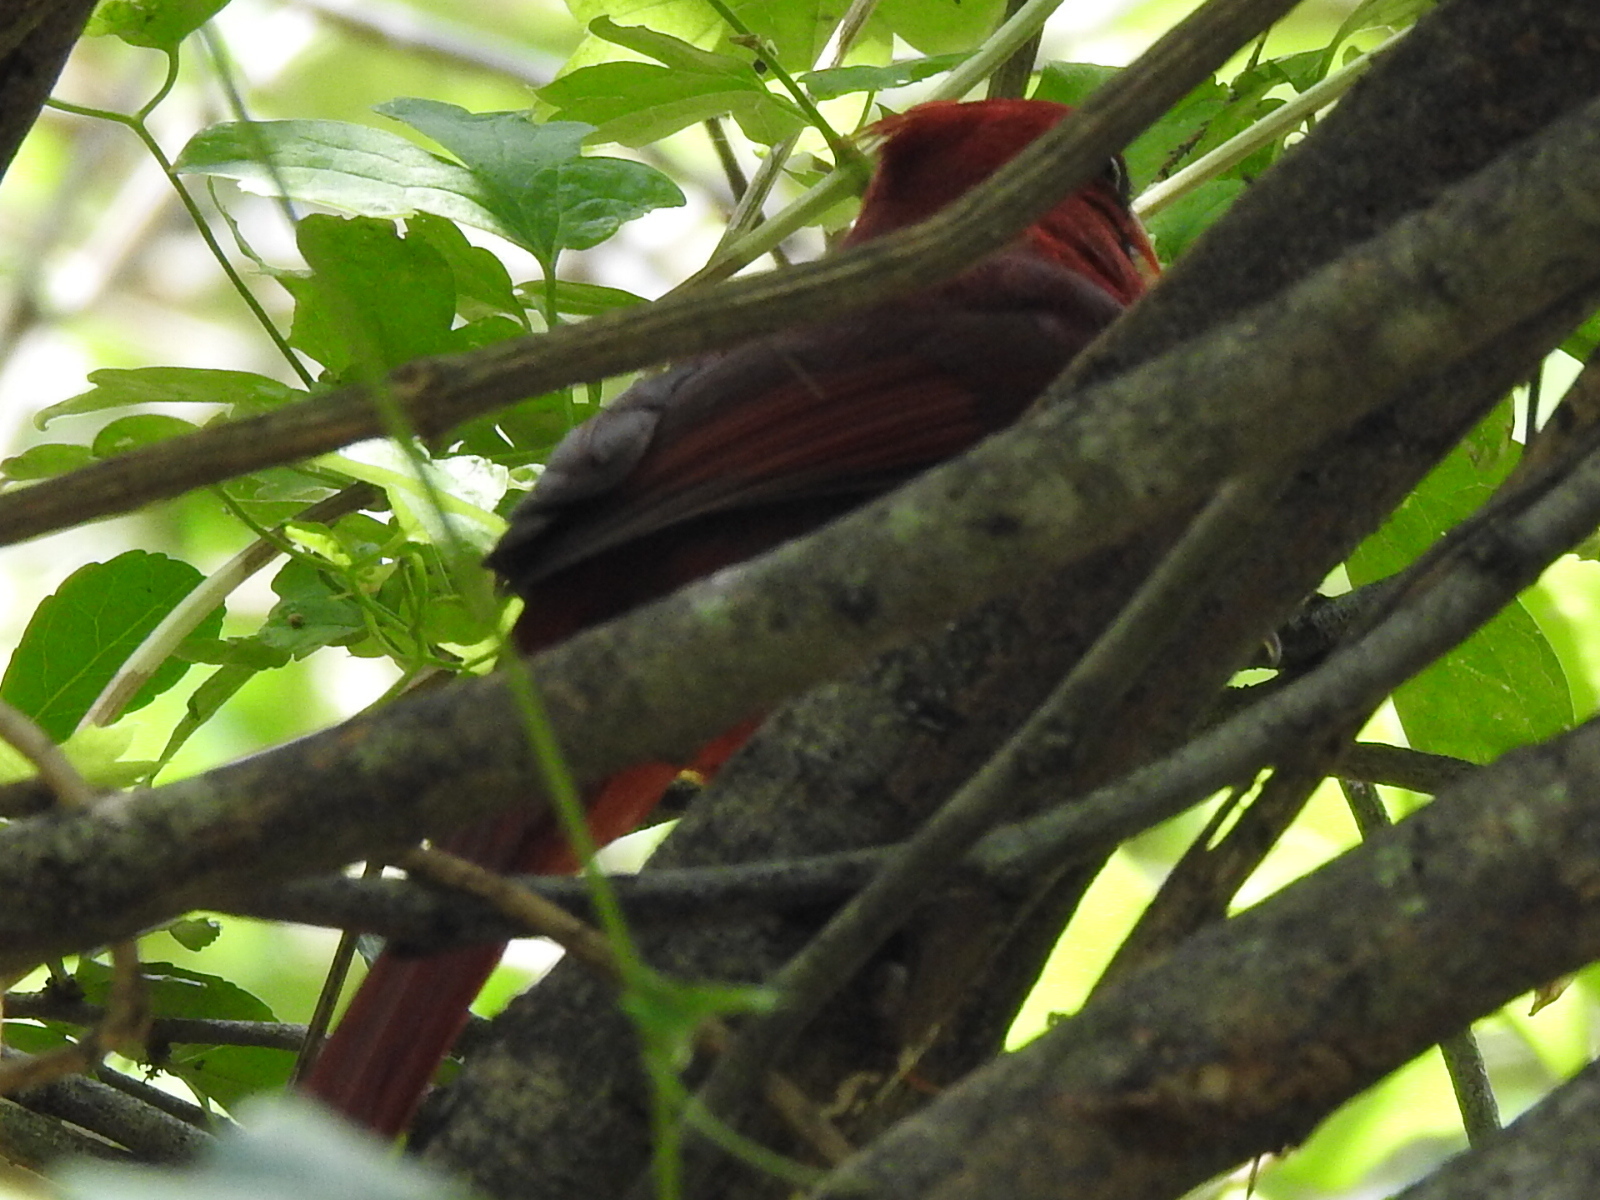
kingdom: Animalia
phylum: Chordata
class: Aves
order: Passeriformes
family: Cardinalidae
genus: Cardinalis
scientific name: Cardinalis cardinalis
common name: Northern cardinal
